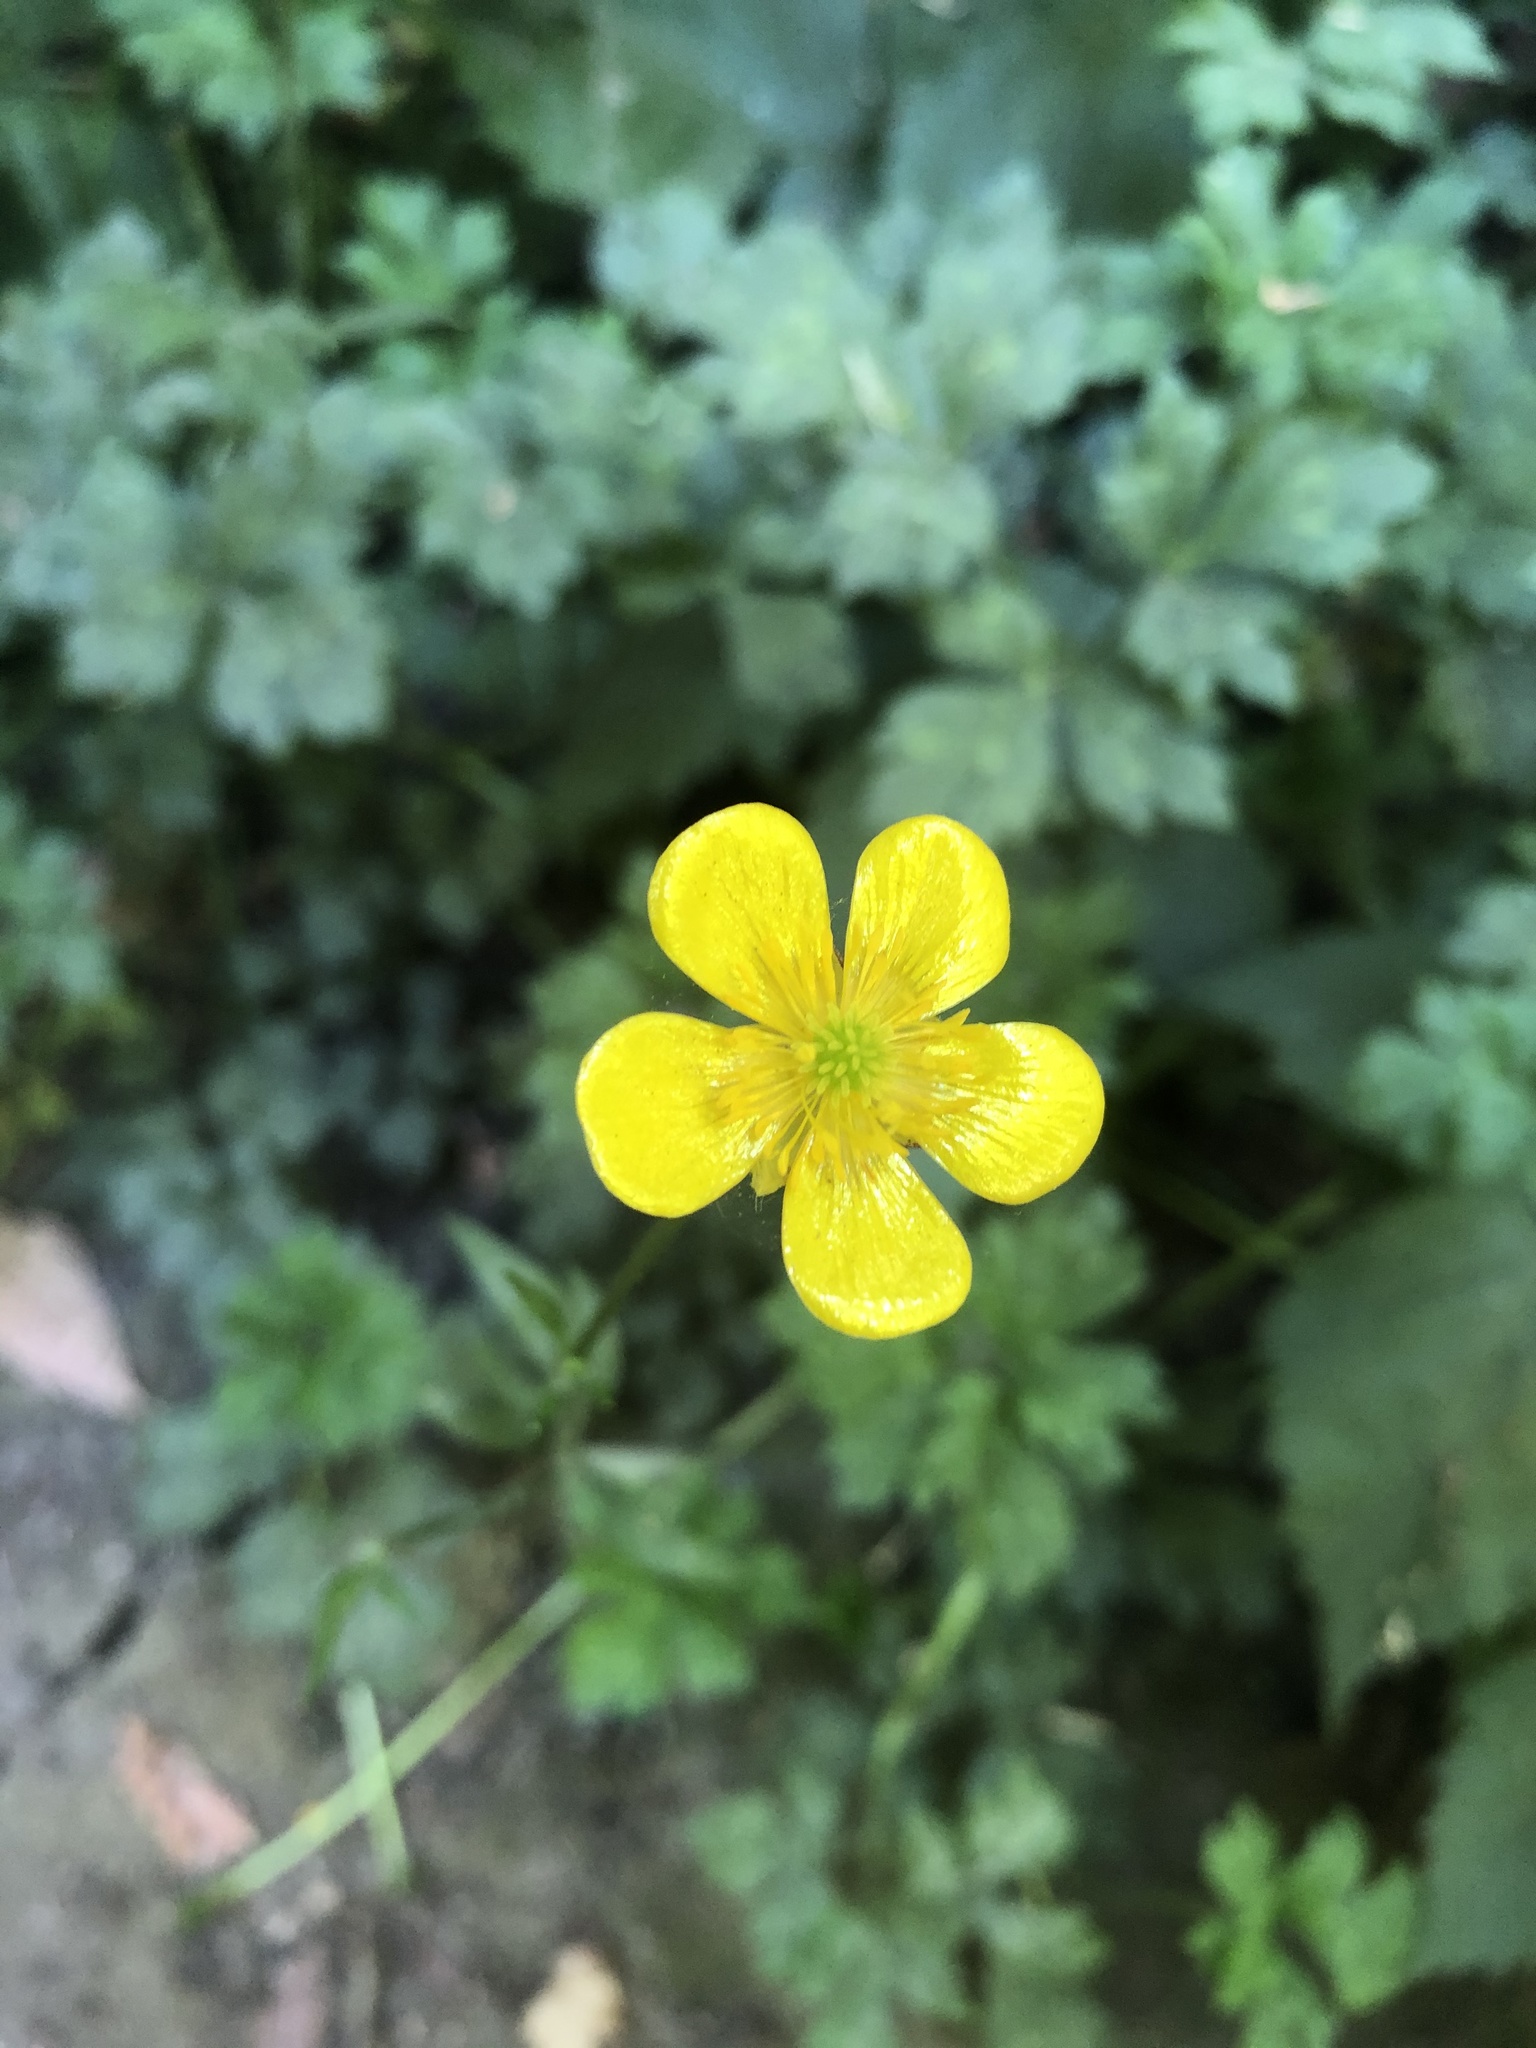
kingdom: Plantae
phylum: Tracheophyta
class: Magnoliopsida
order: Ranunculales
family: Ranunculaceae
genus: Ranunculus
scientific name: Ranunculus repens
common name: Creeping buttercup
